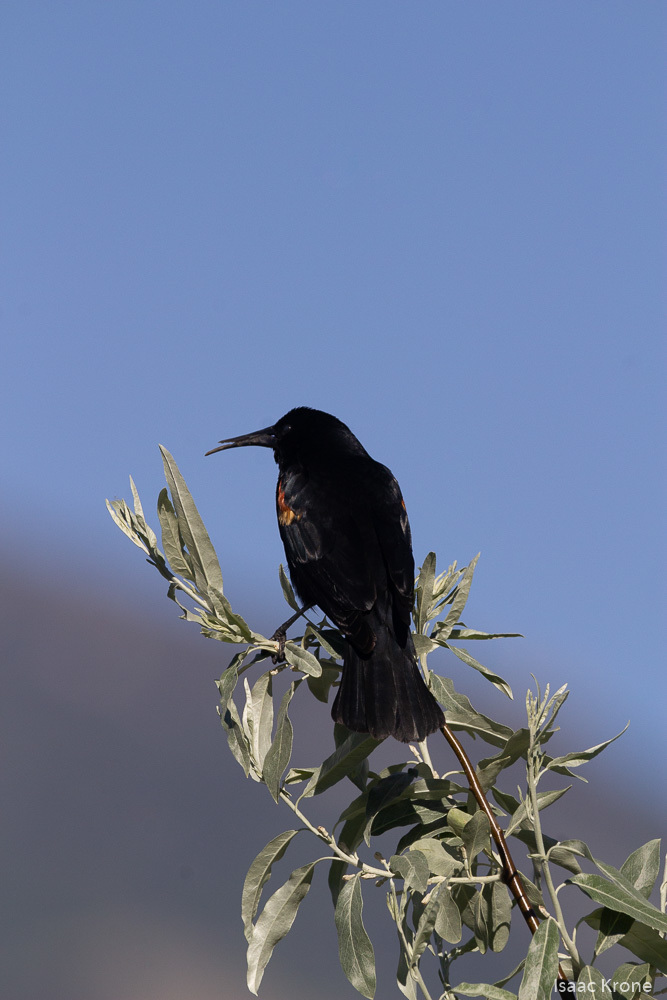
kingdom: Animalia
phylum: Chordata
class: Aves
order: Passeriformes
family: Icteridae
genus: Agelaius
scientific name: Agelaius phoeniceus
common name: Red-winged blackbird
